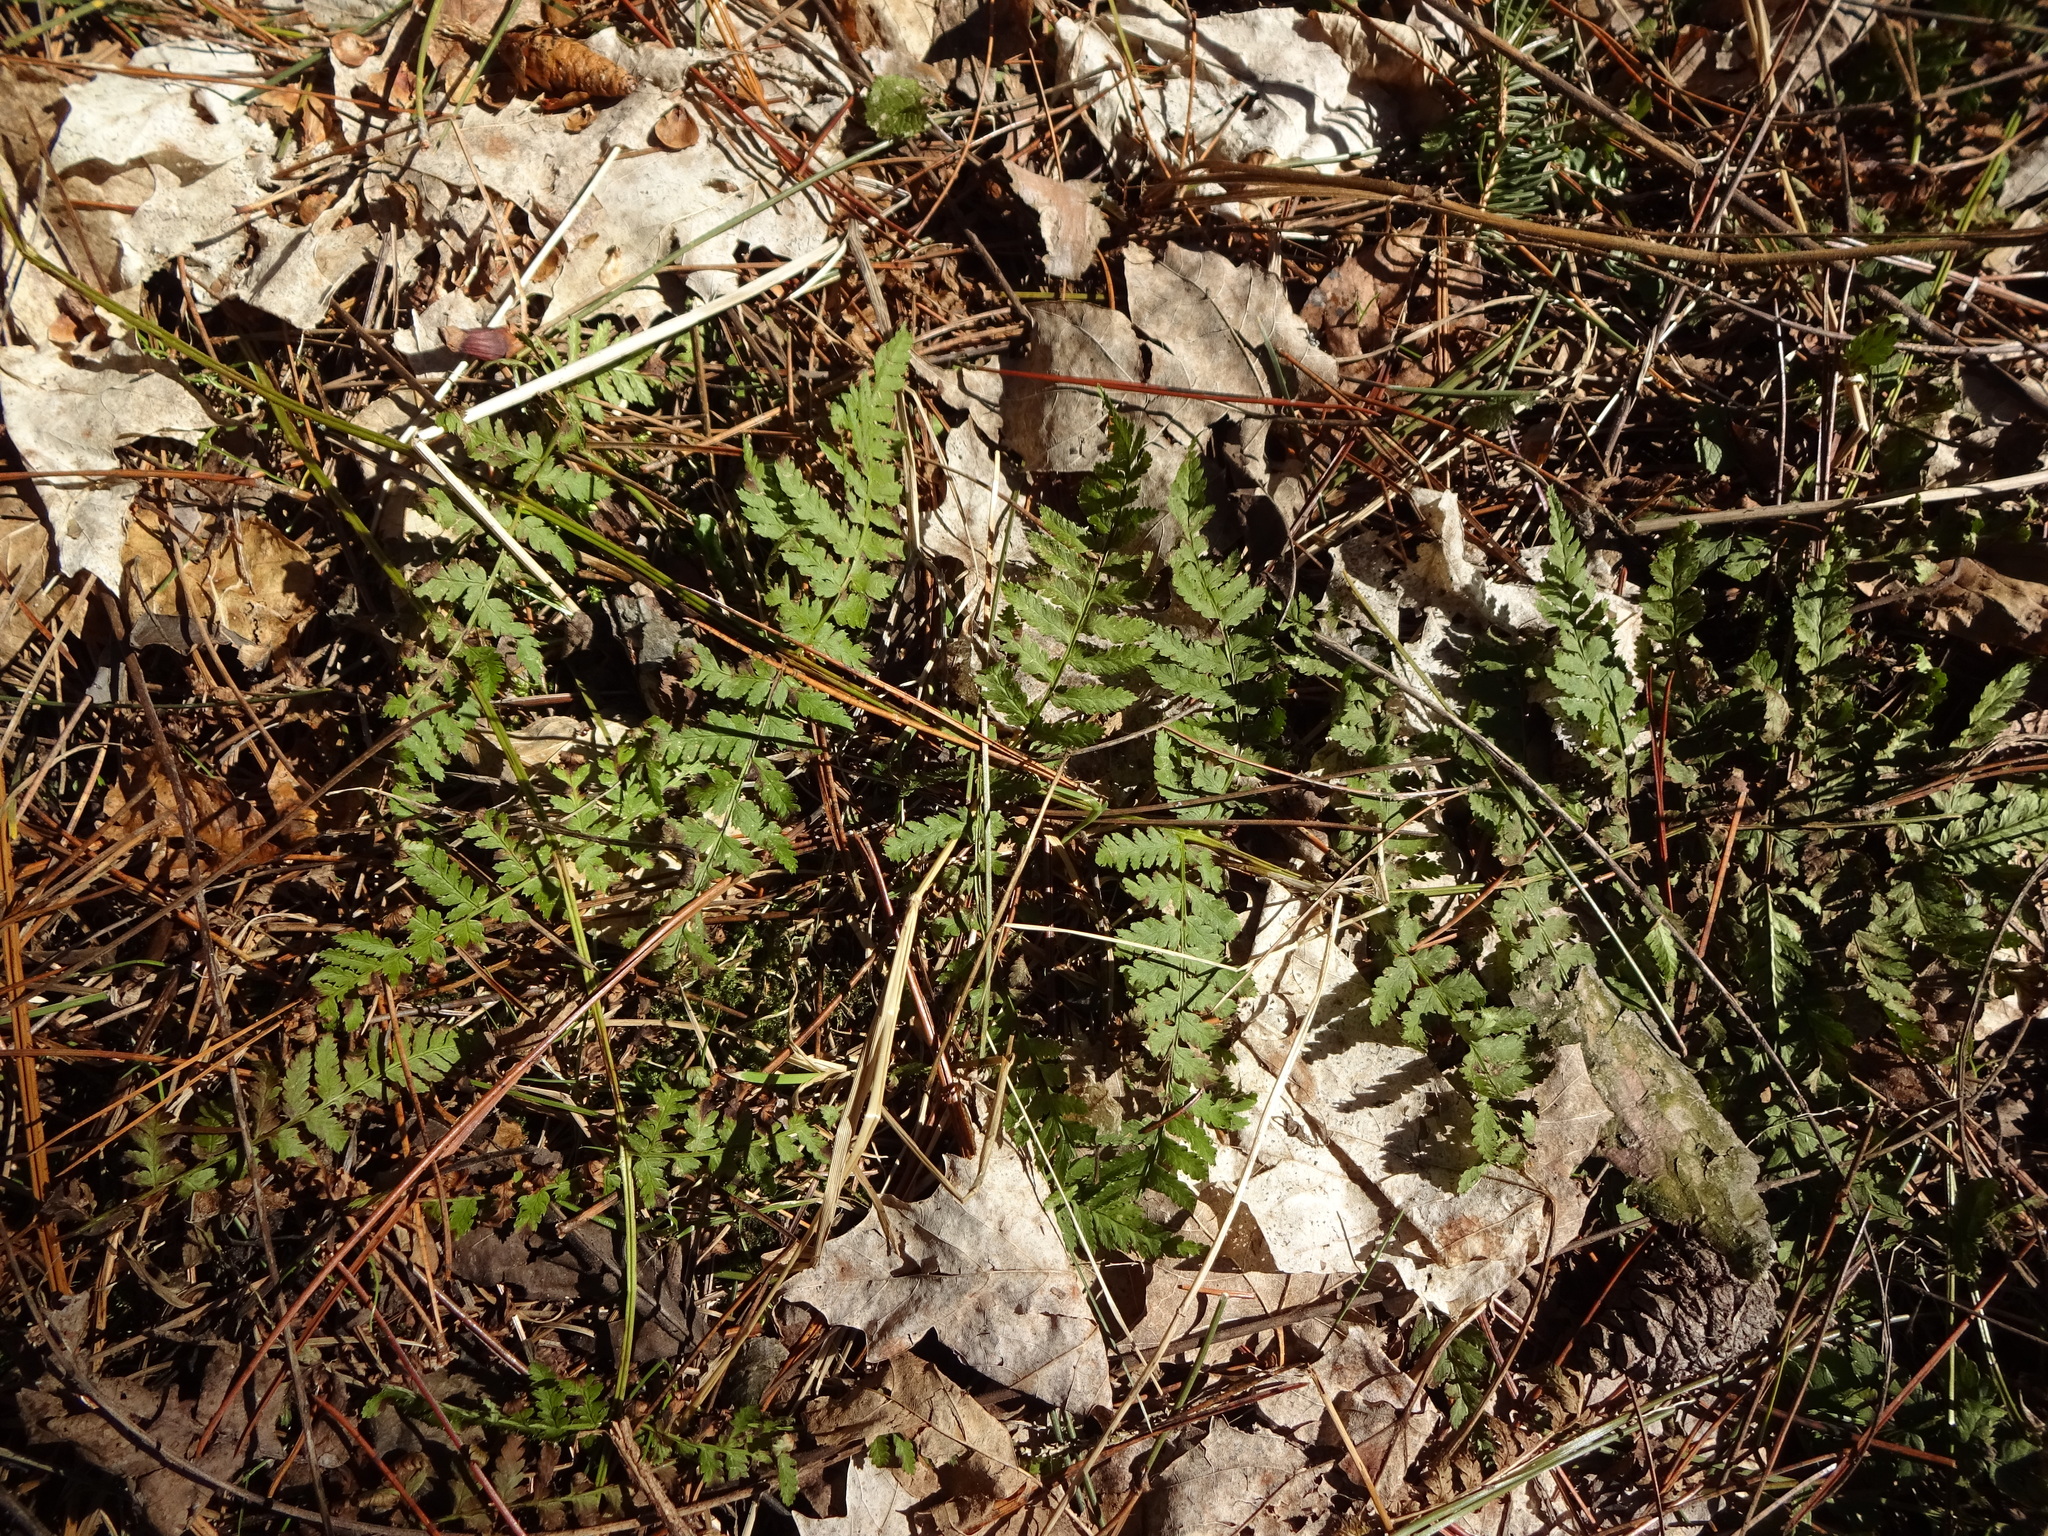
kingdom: Plantae
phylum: Tracheophyta
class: Polypodiopsida
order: Polypodiales
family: Dryopteridaceae
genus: Dryopteris
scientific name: Dryopteris intermedia
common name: Evergreen wood fern
